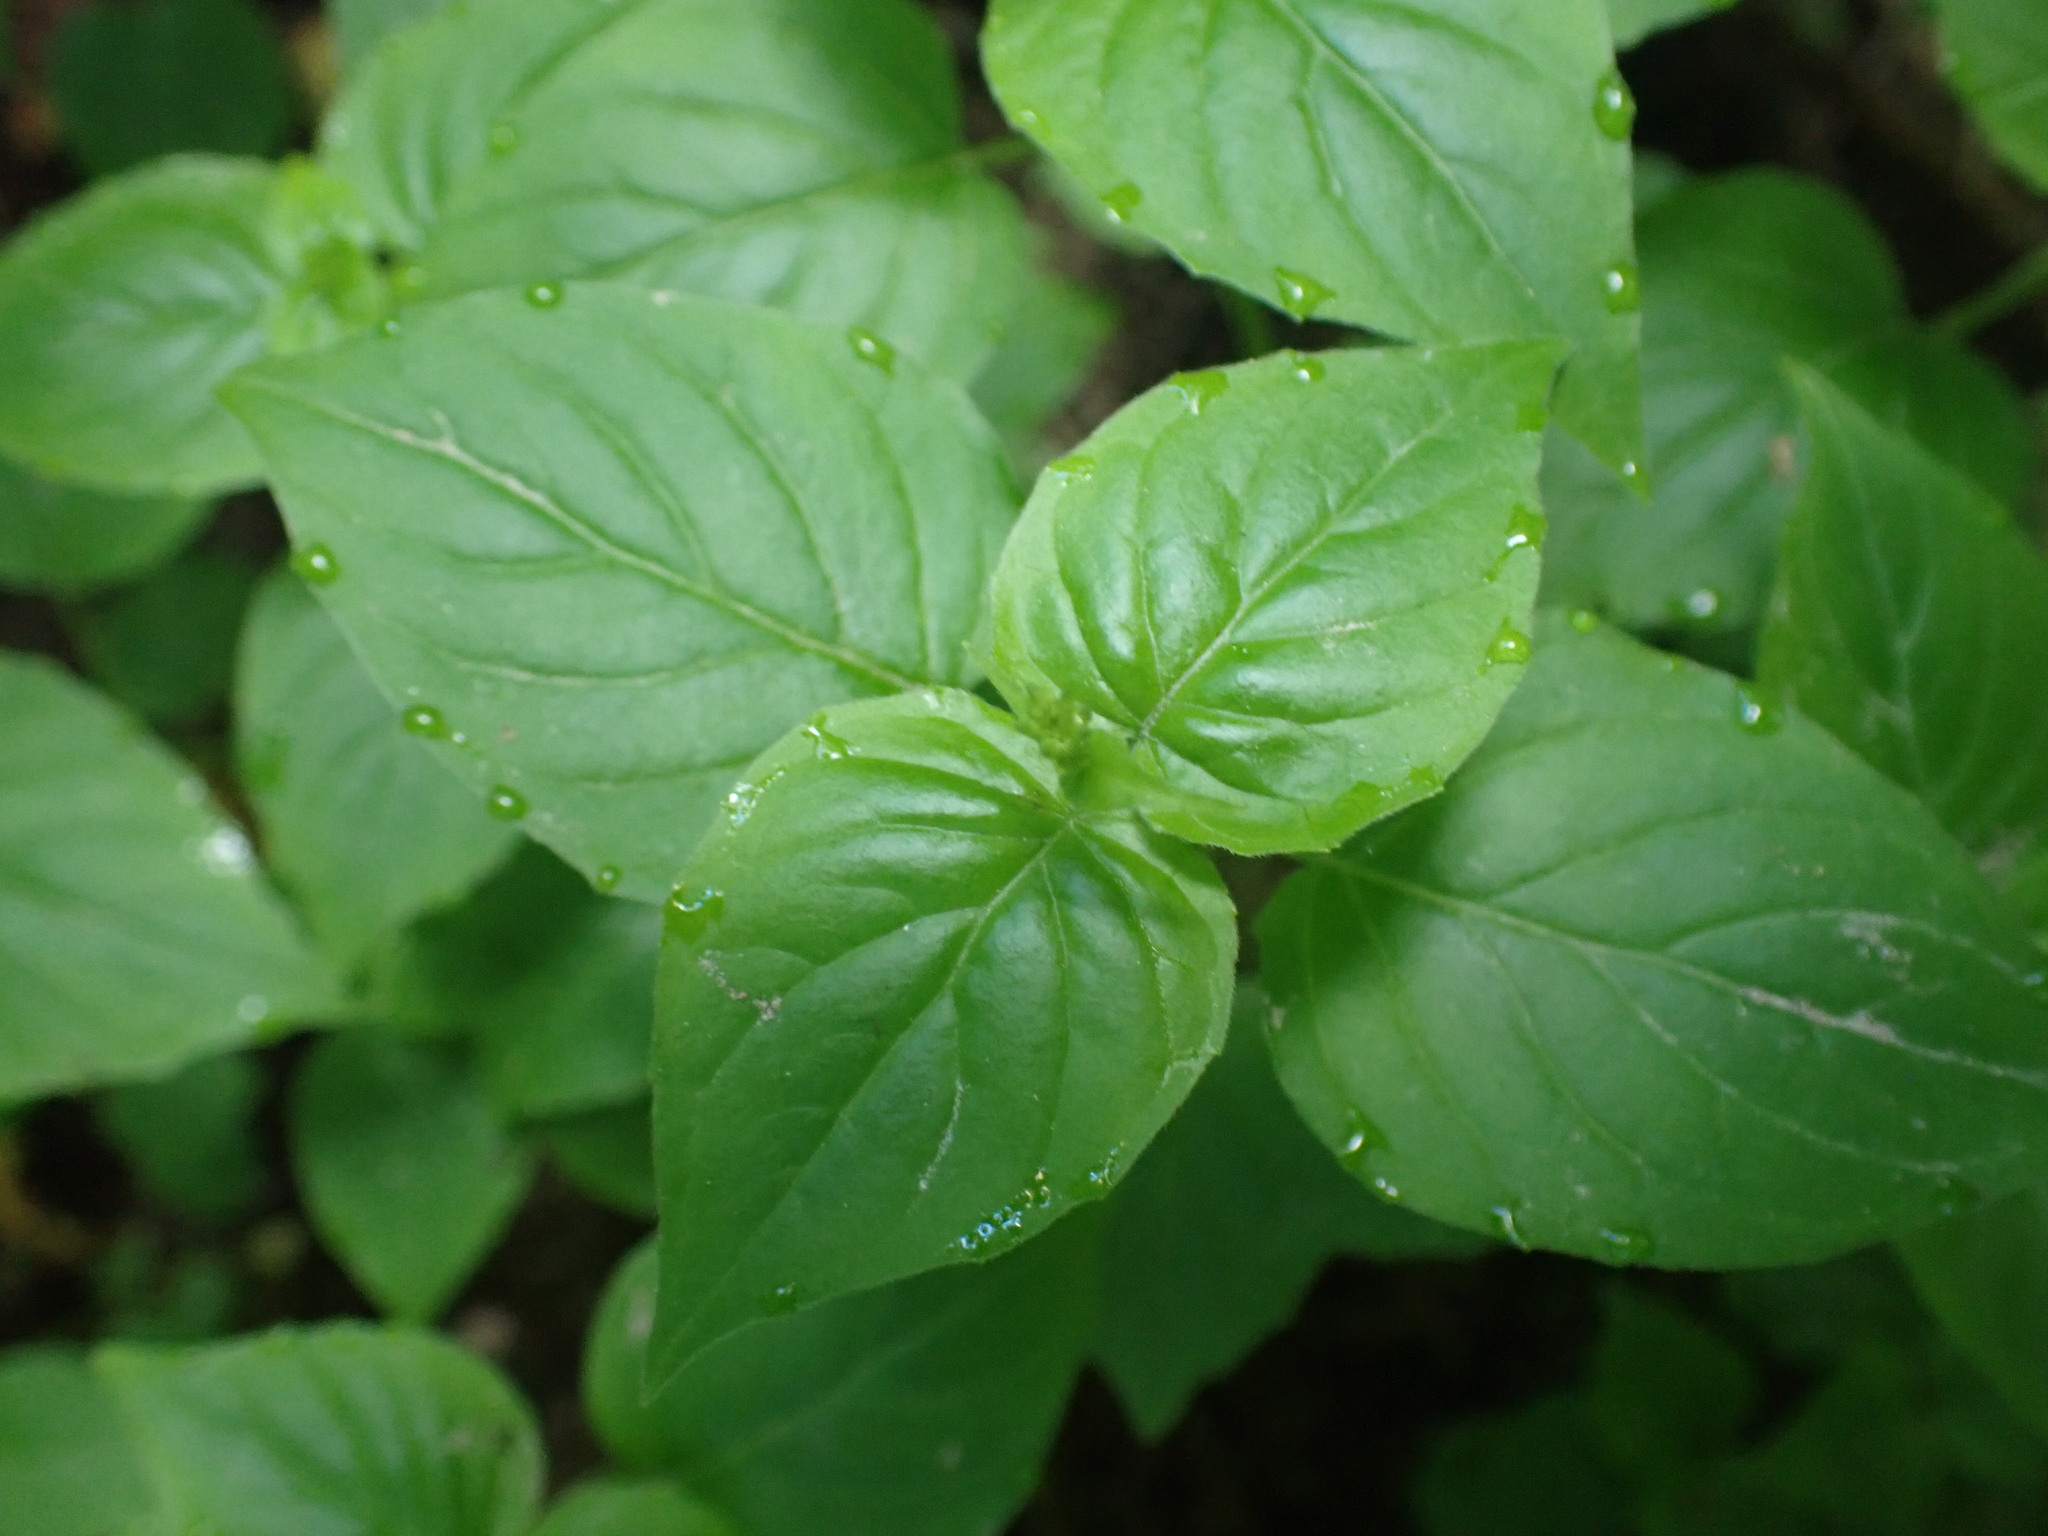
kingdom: Plantae
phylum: Tracheophyta
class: Magnoliopsida
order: Myrtales
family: Onagraceae
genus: Circaea
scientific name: Circaea alpina
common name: Alpine enchanter's-nightshade
